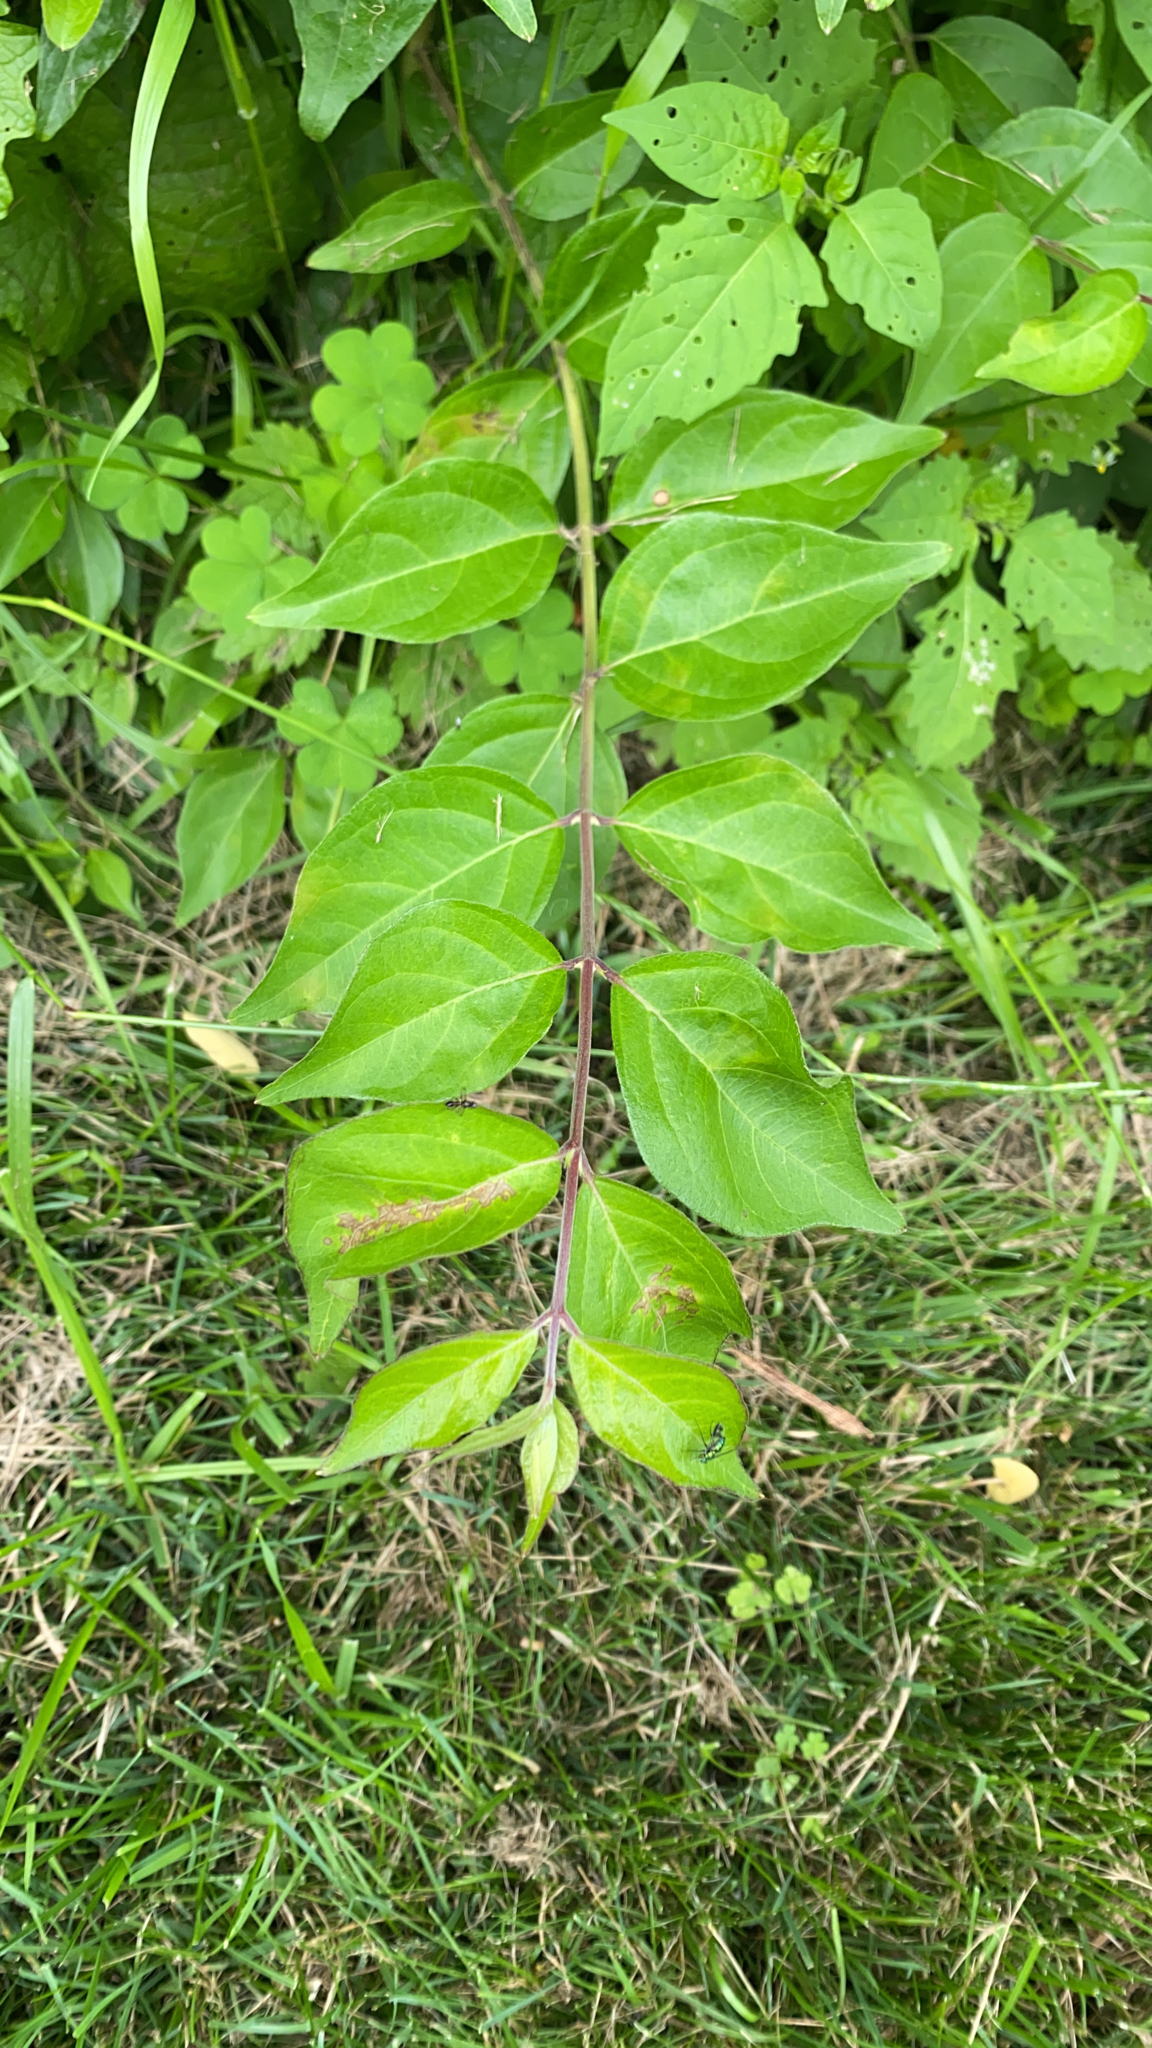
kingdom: Plantae
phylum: Tracheophyta
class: Magnoliopsida
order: Dipsacales
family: Caprifoliaceae
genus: Lonicera
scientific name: Lonicera maackii
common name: Amur honeysuckle
